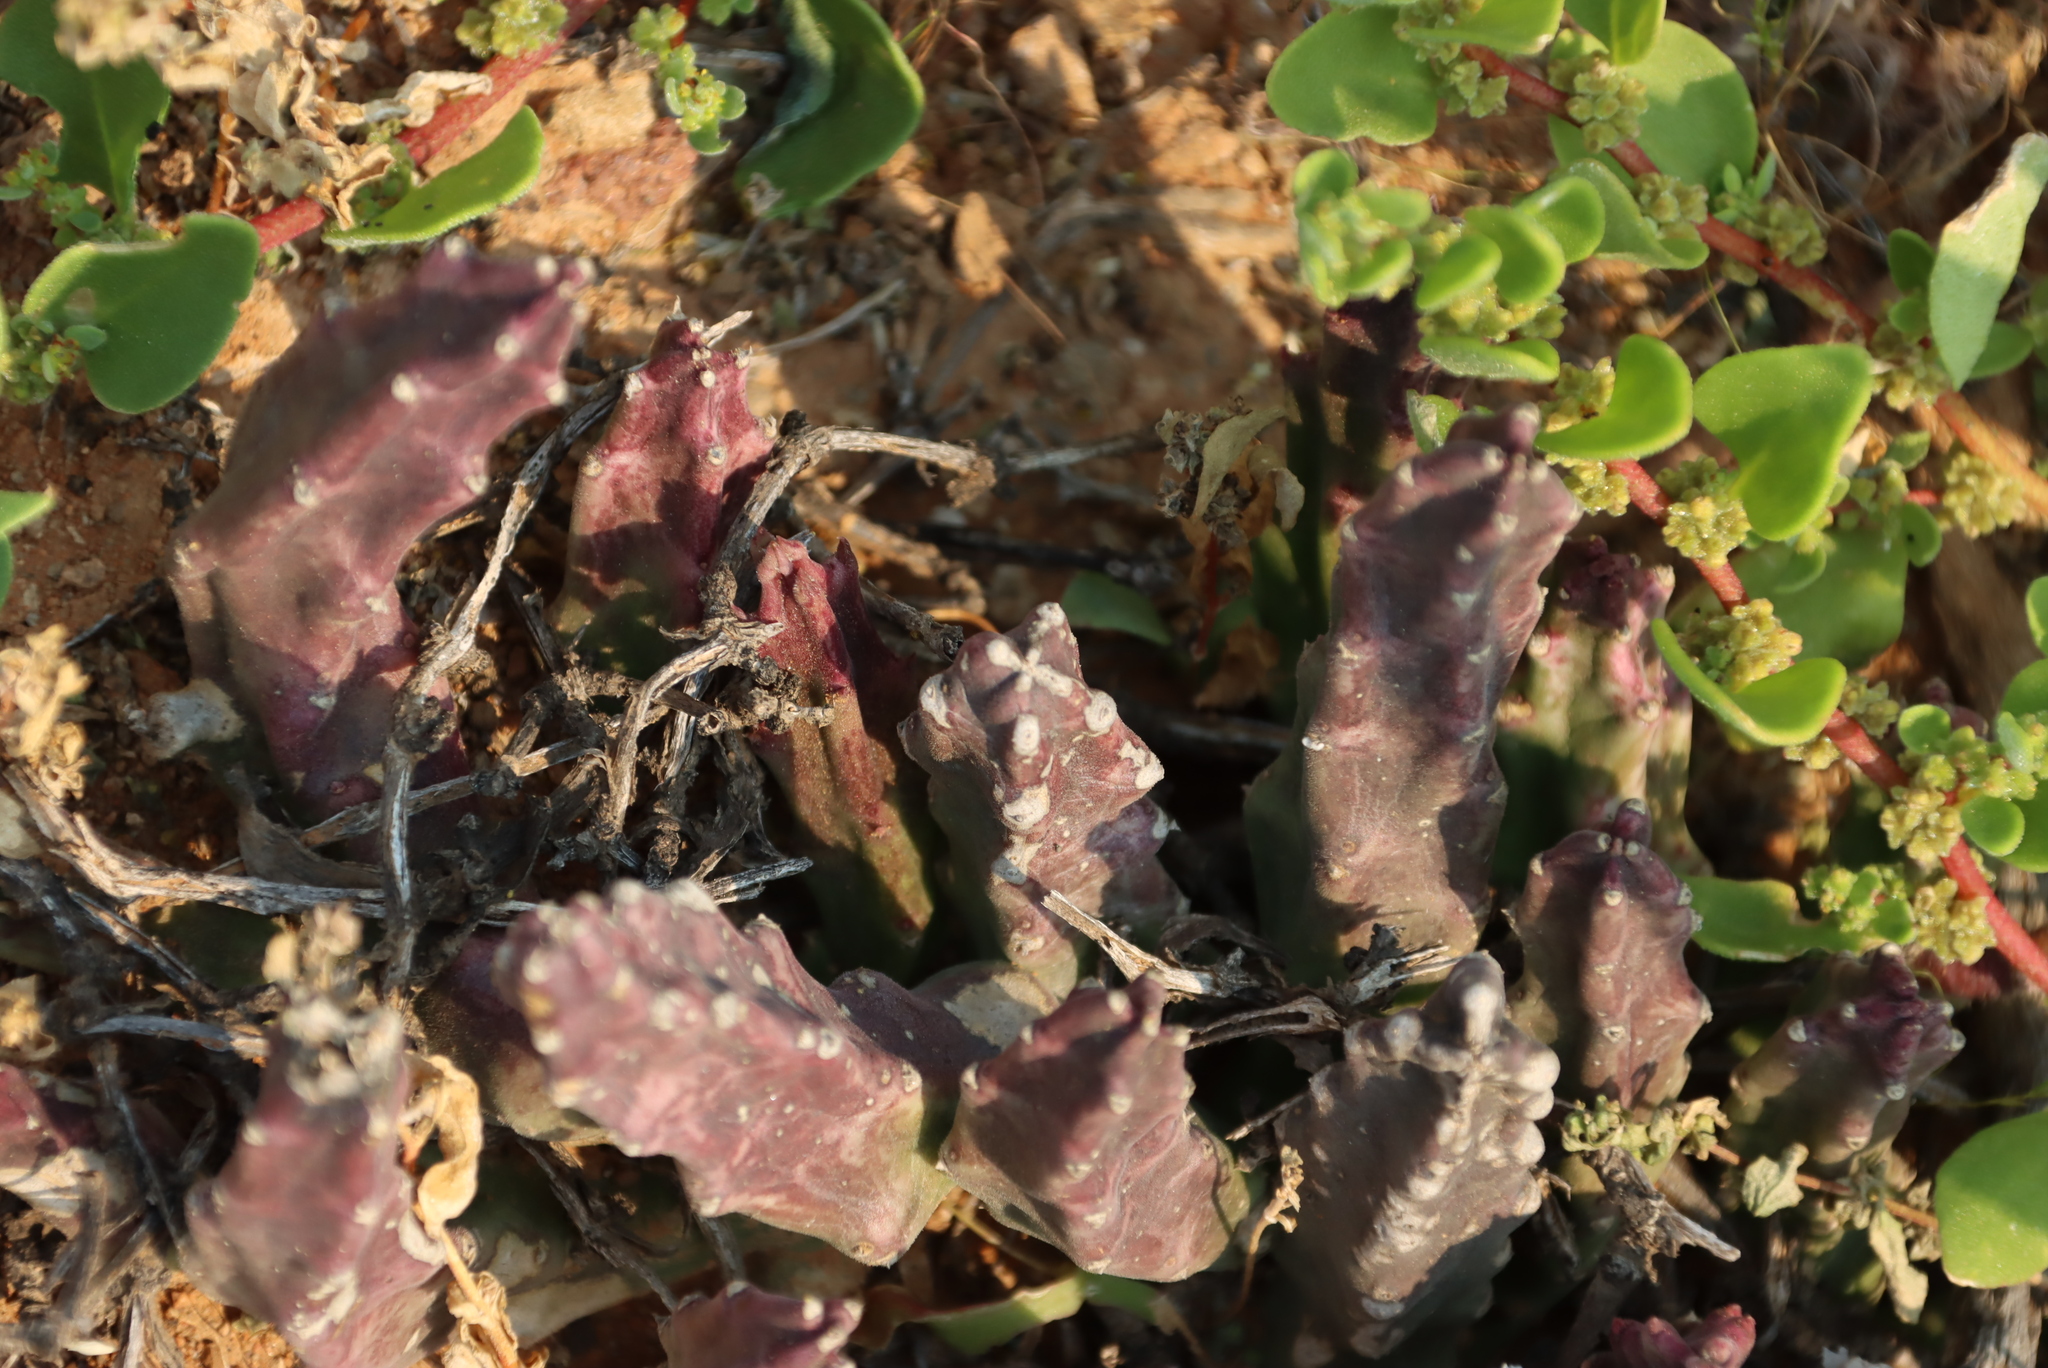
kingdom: Plantae
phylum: Tracheophyta
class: Magnoliopsida
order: Gentianales
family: Apocynaceae
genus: Ceropegia
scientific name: Ceropegia pulvinata
